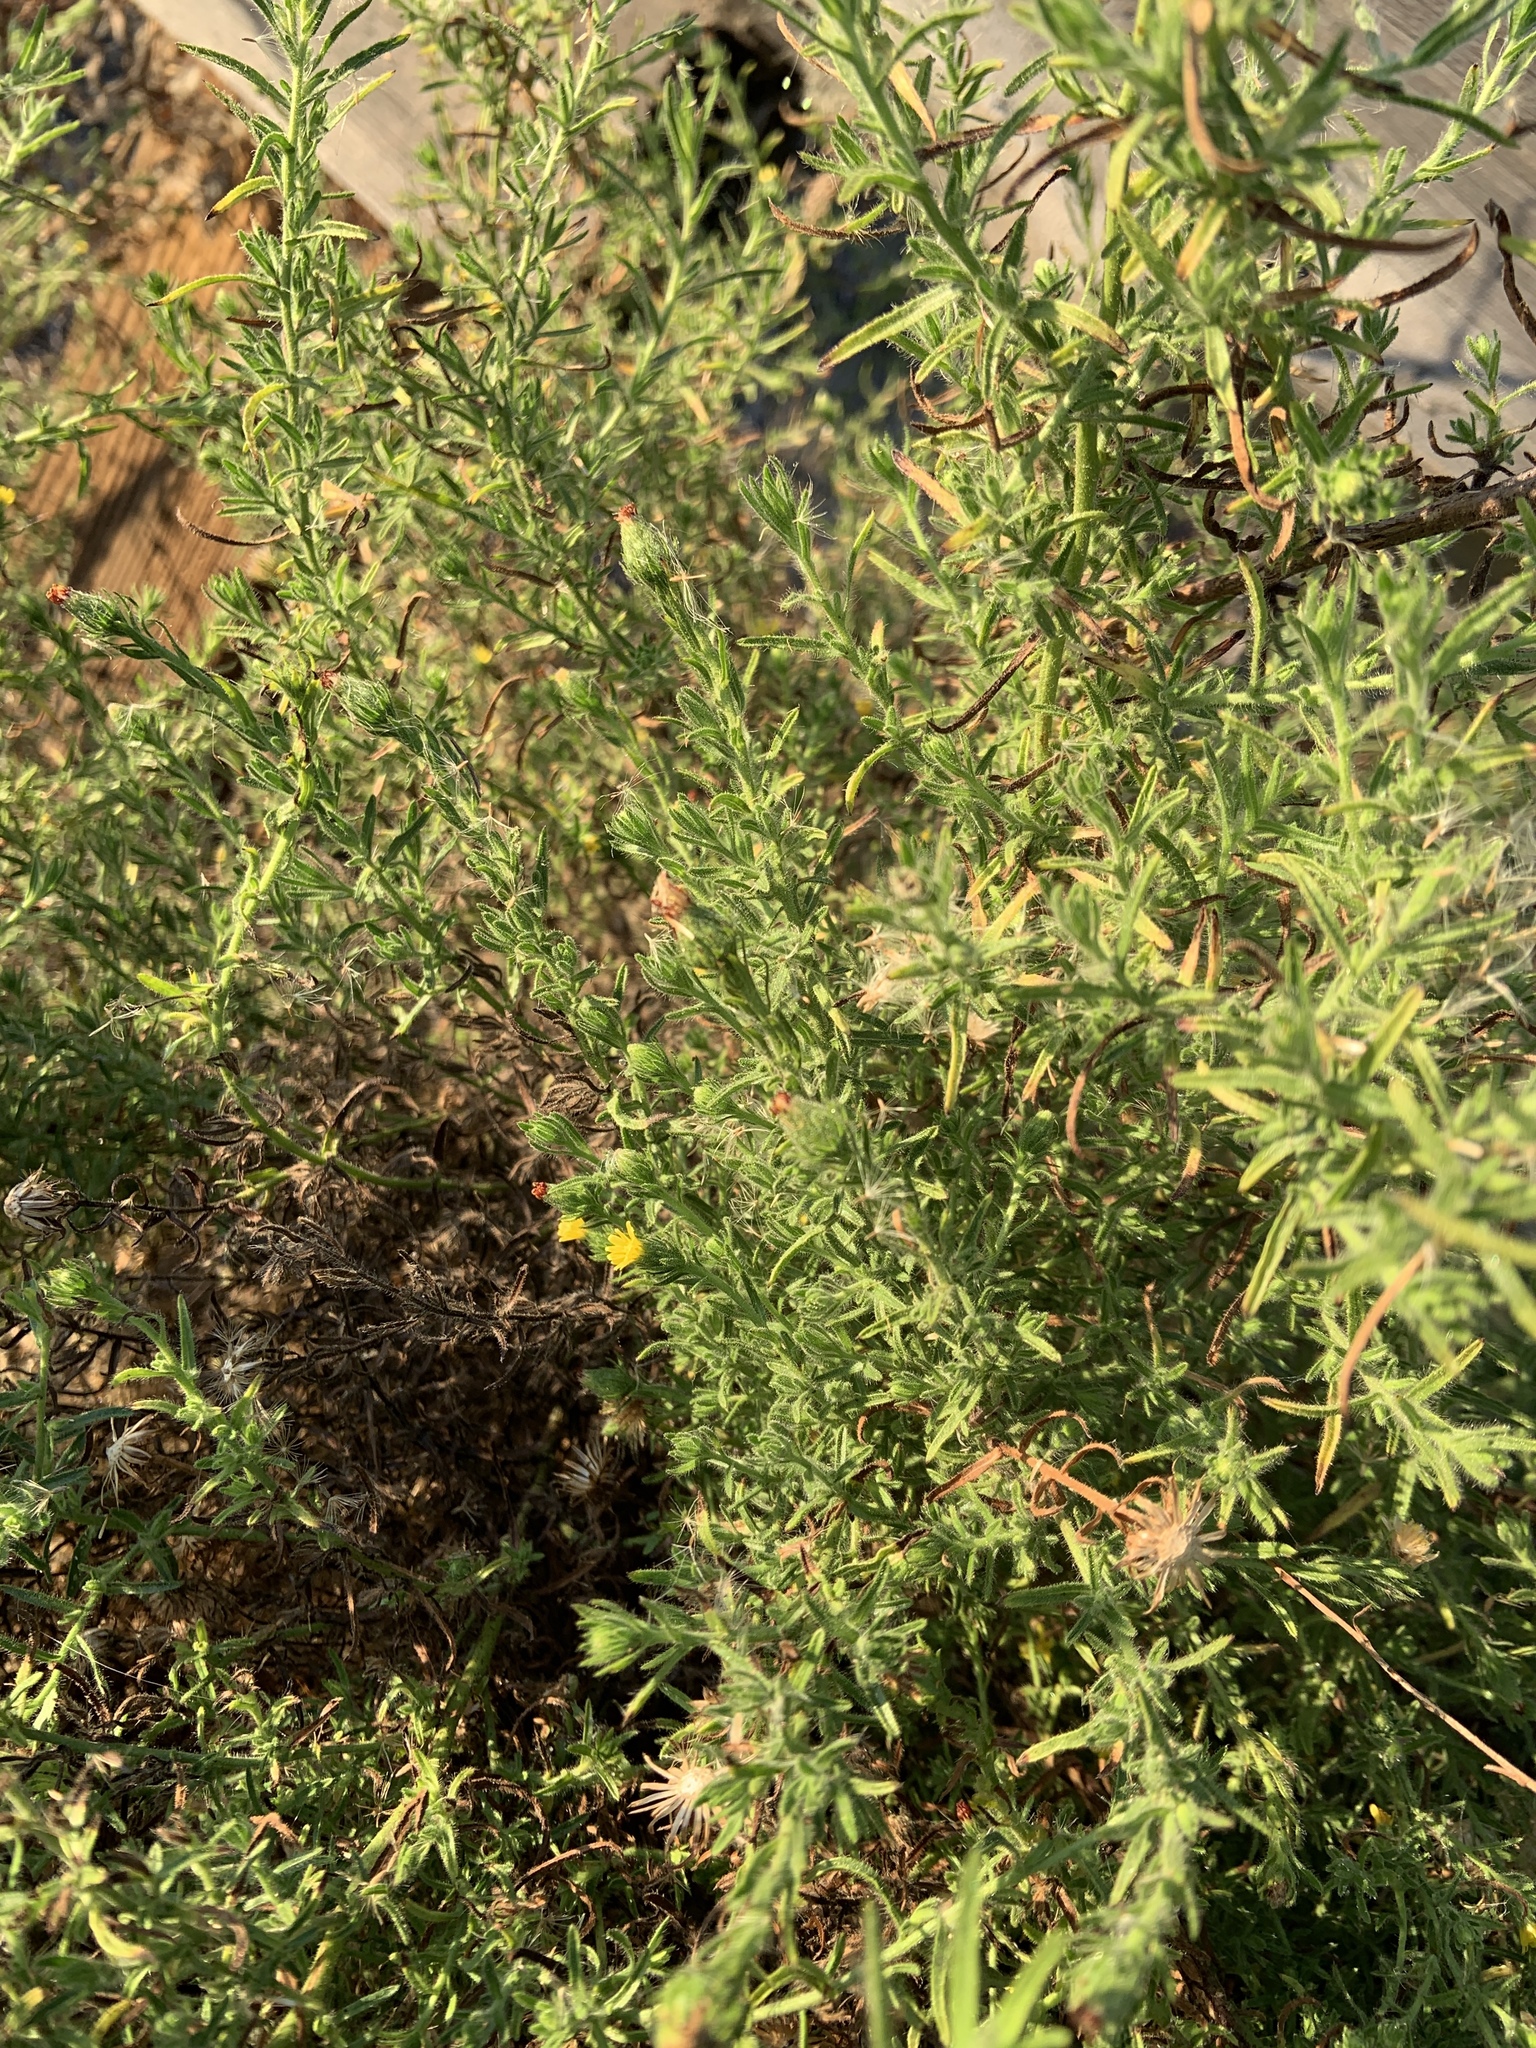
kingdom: Plantae
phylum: Tracheophyta
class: Magnoliopsida
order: Asterales
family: Asteraceae
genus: Dittrichia
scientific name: Dittrichia graveolens
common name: Stinking fleabane
